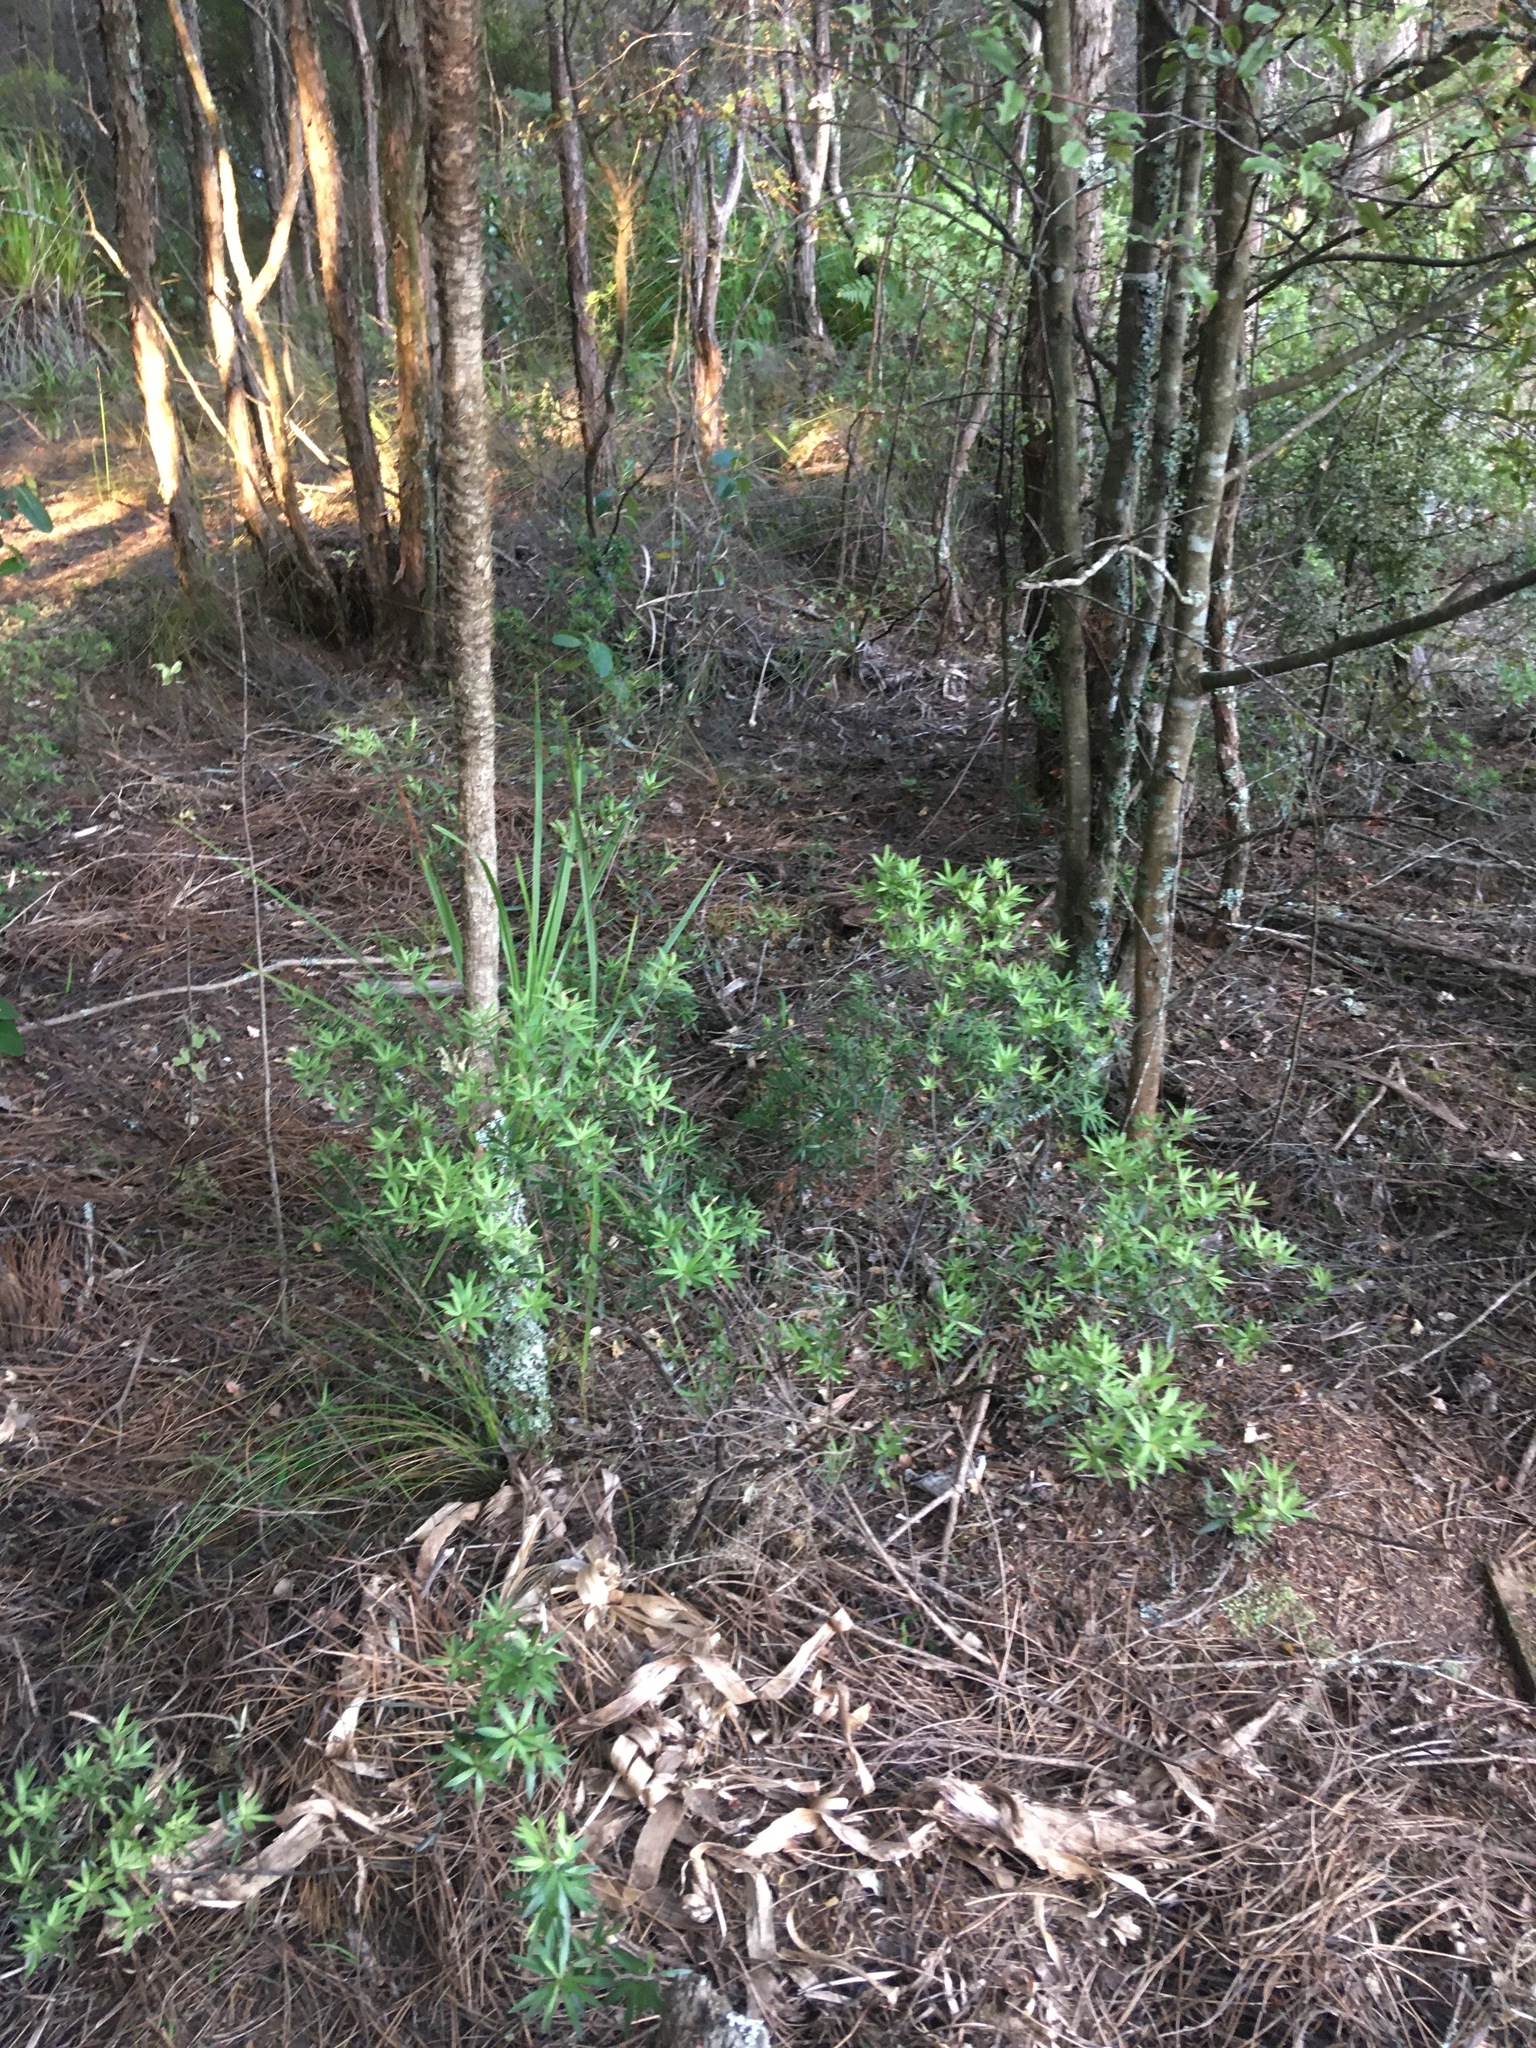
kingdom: Plantae
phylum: Tracheophyta
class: Magnoliopsida
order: Ericales
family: Ericaceae
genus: Leucopogon
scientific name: Leucopogon fasciculatus
